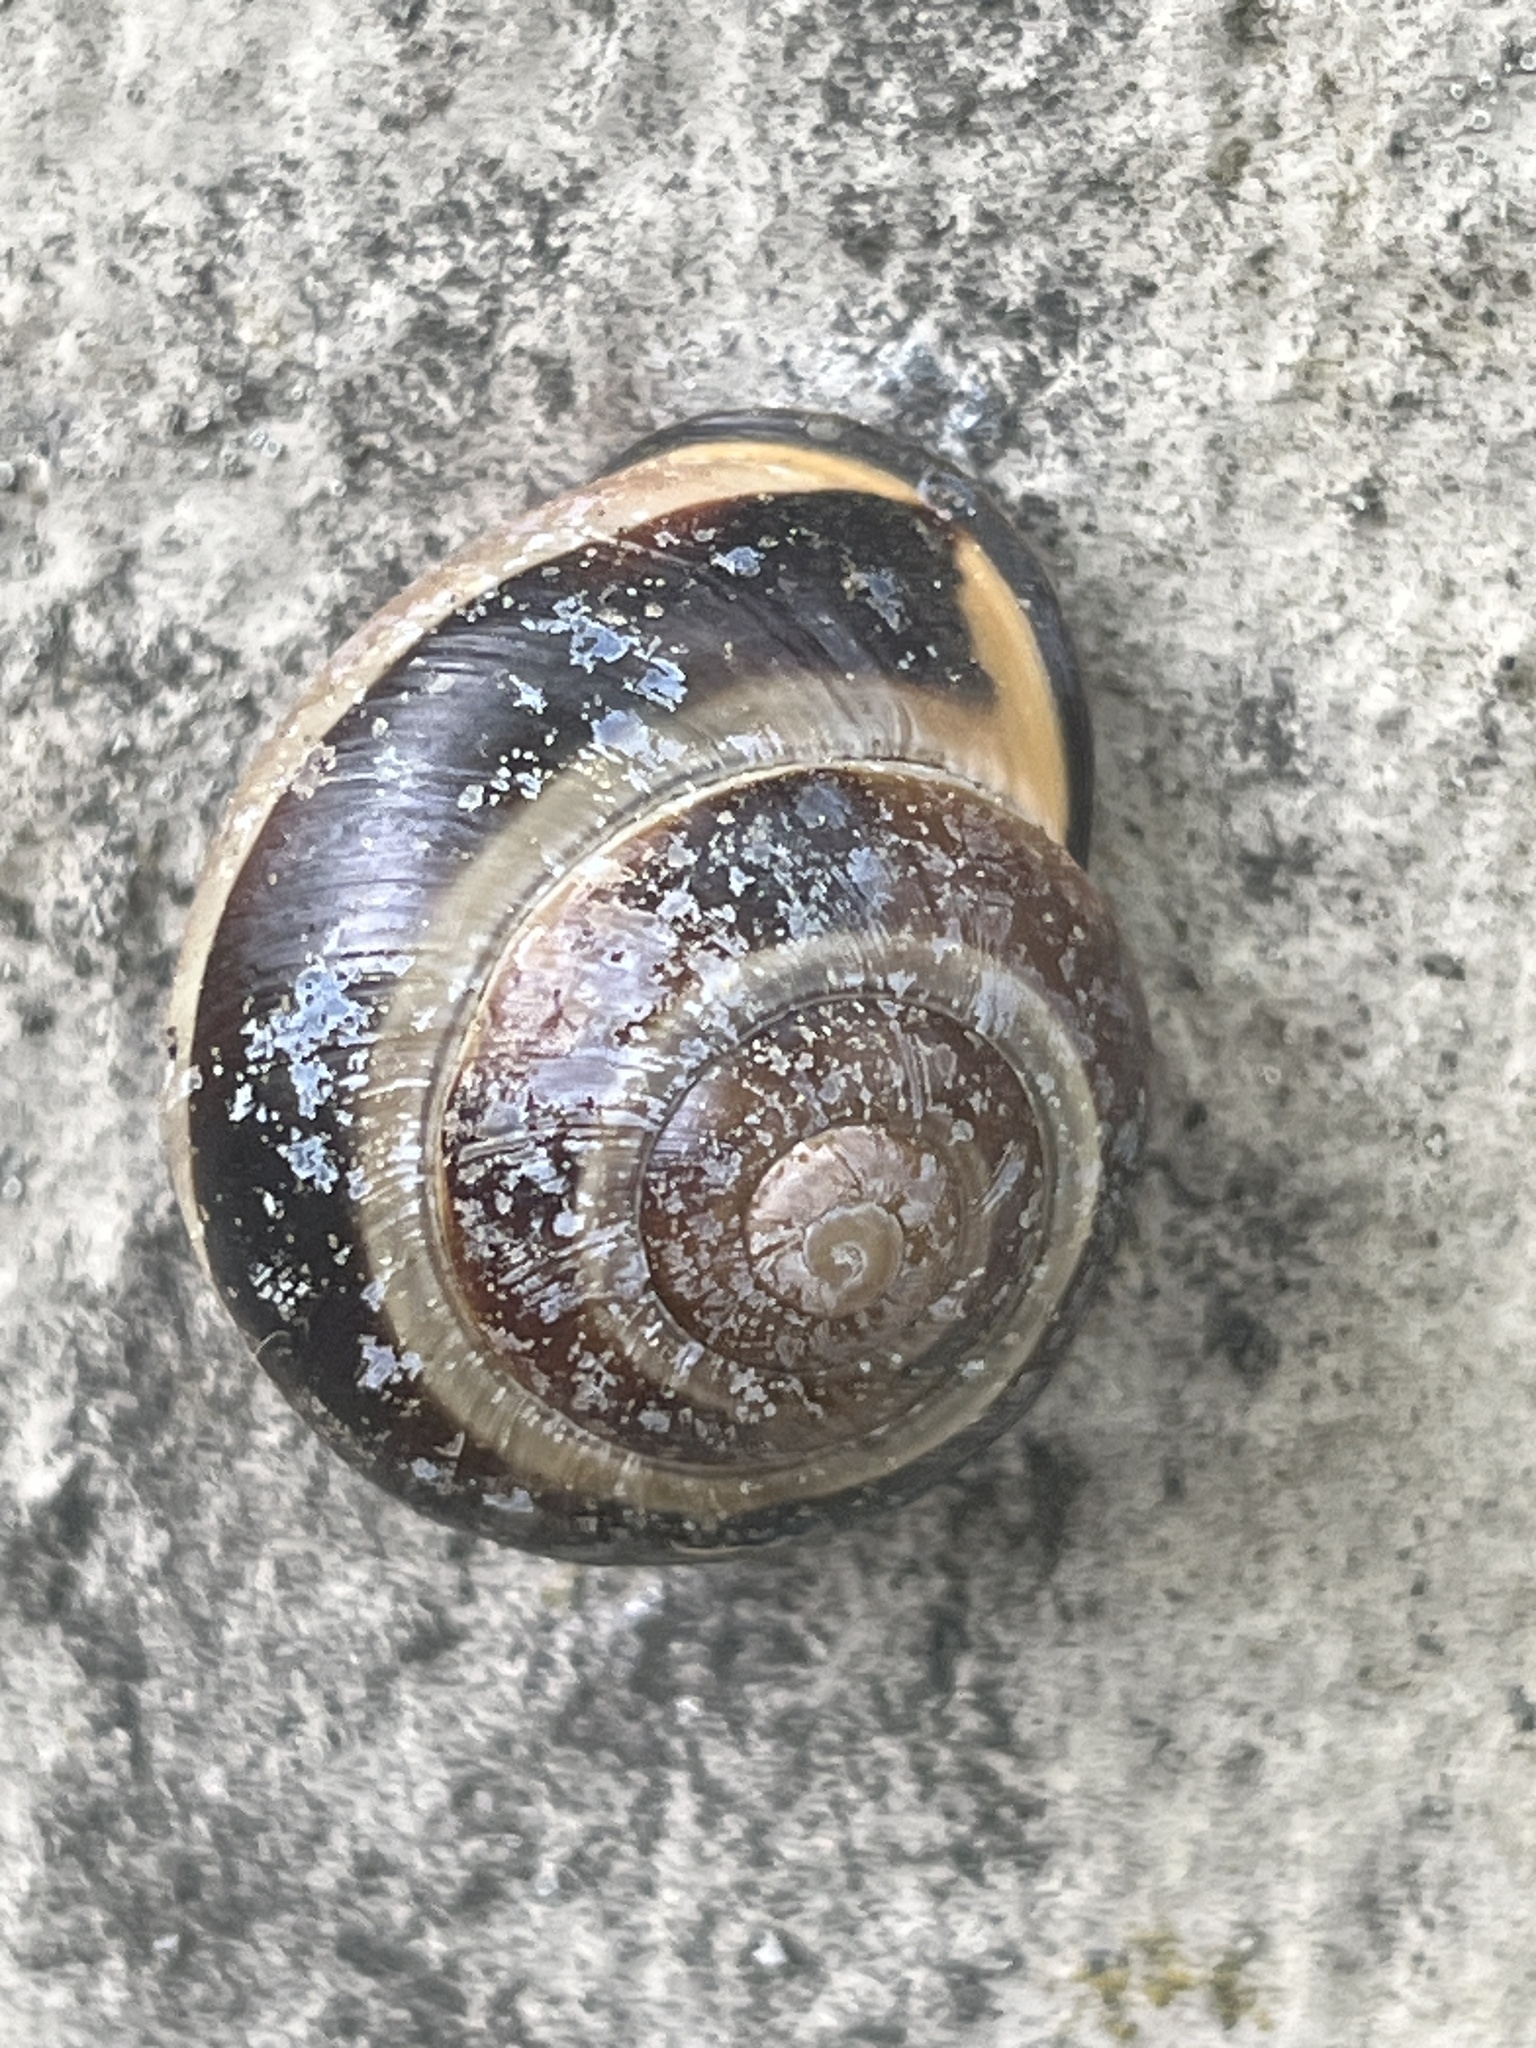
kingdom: Animalia
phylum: Mollusca
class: Gastropoda
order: Stylommatophora
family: Helicidae
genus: Cepaea
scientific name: Cepaea nemoralis
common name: Grovesnail
